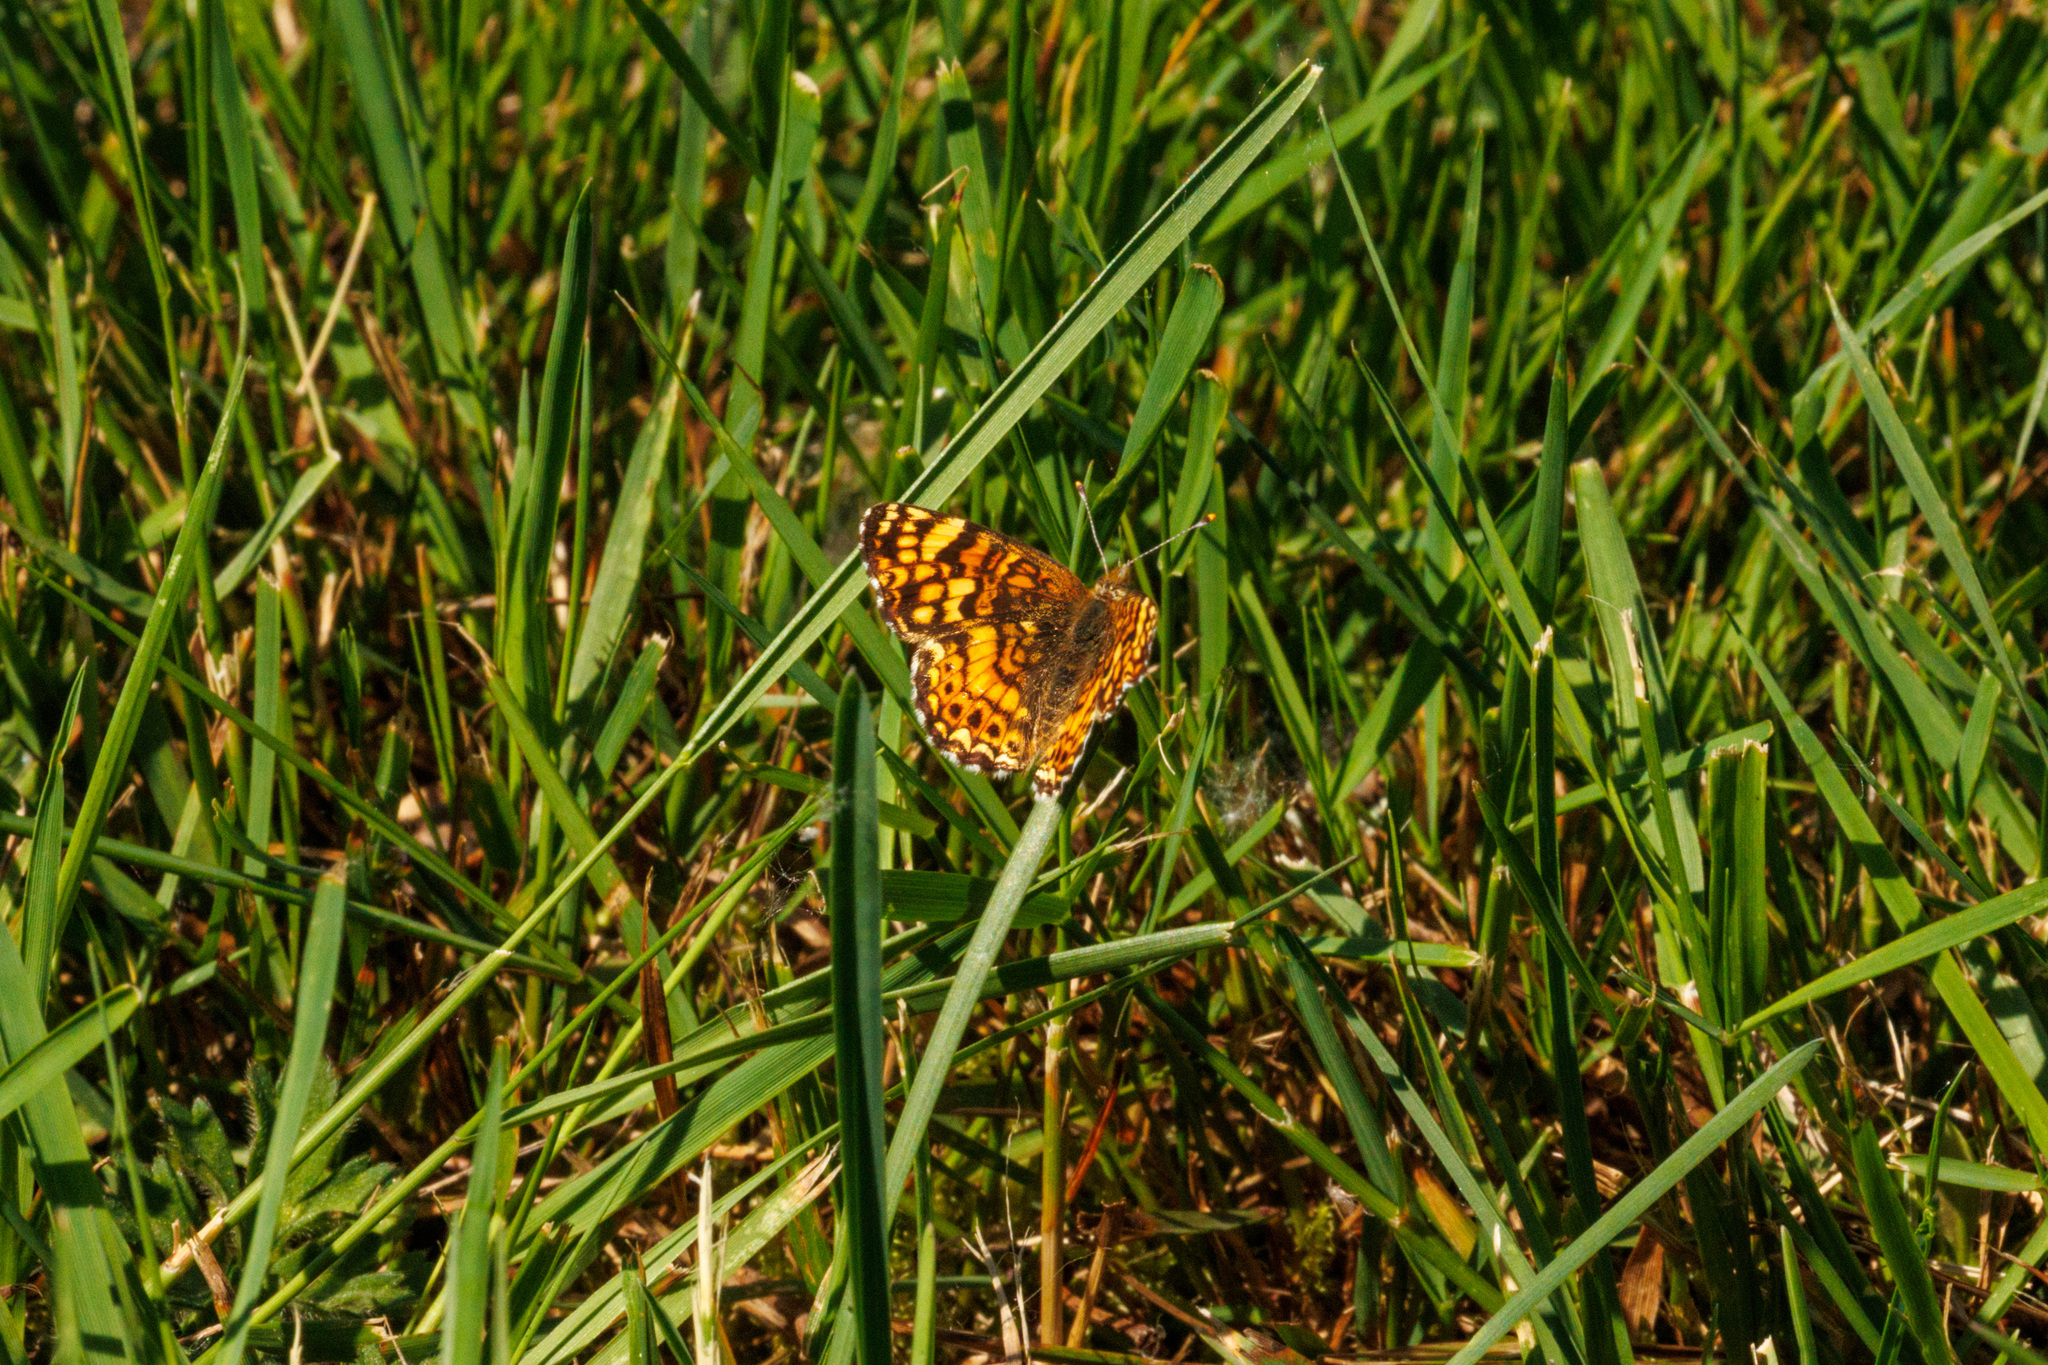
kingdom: Animalia
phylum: Arthropoda
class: Insecta
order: Lepidoptera
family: Nymphalidae
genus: Eresia
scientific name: Eresia aveyrona
